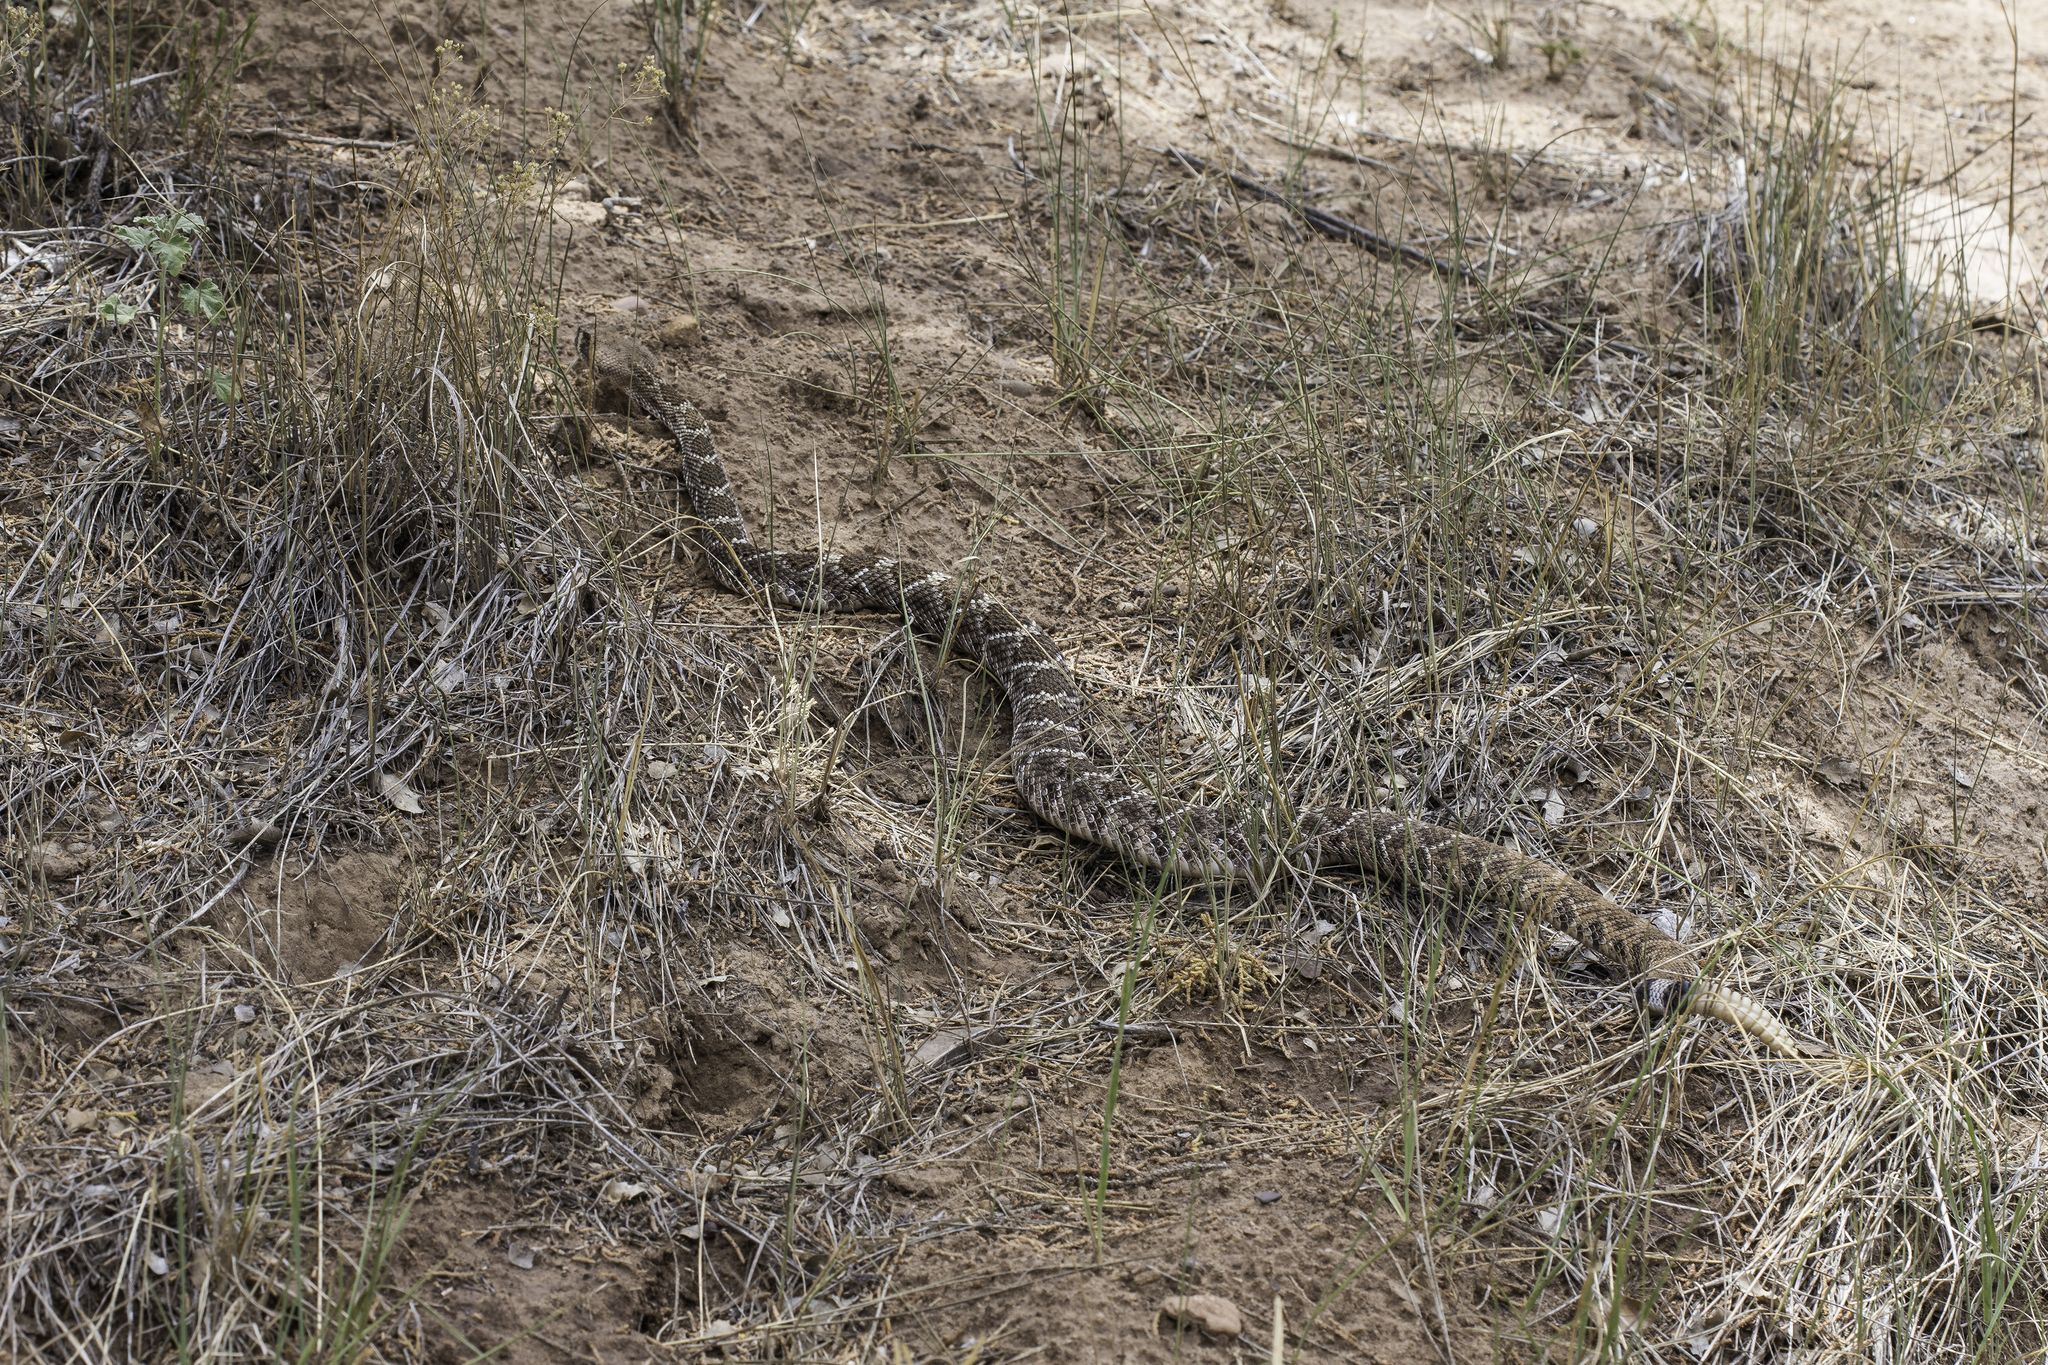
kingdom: Animalia
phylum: Chordata
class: Squamata
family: Viperidae
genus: Crotalus
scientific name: Crotalus atrox
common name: Western diamond-backed rattlesnake
